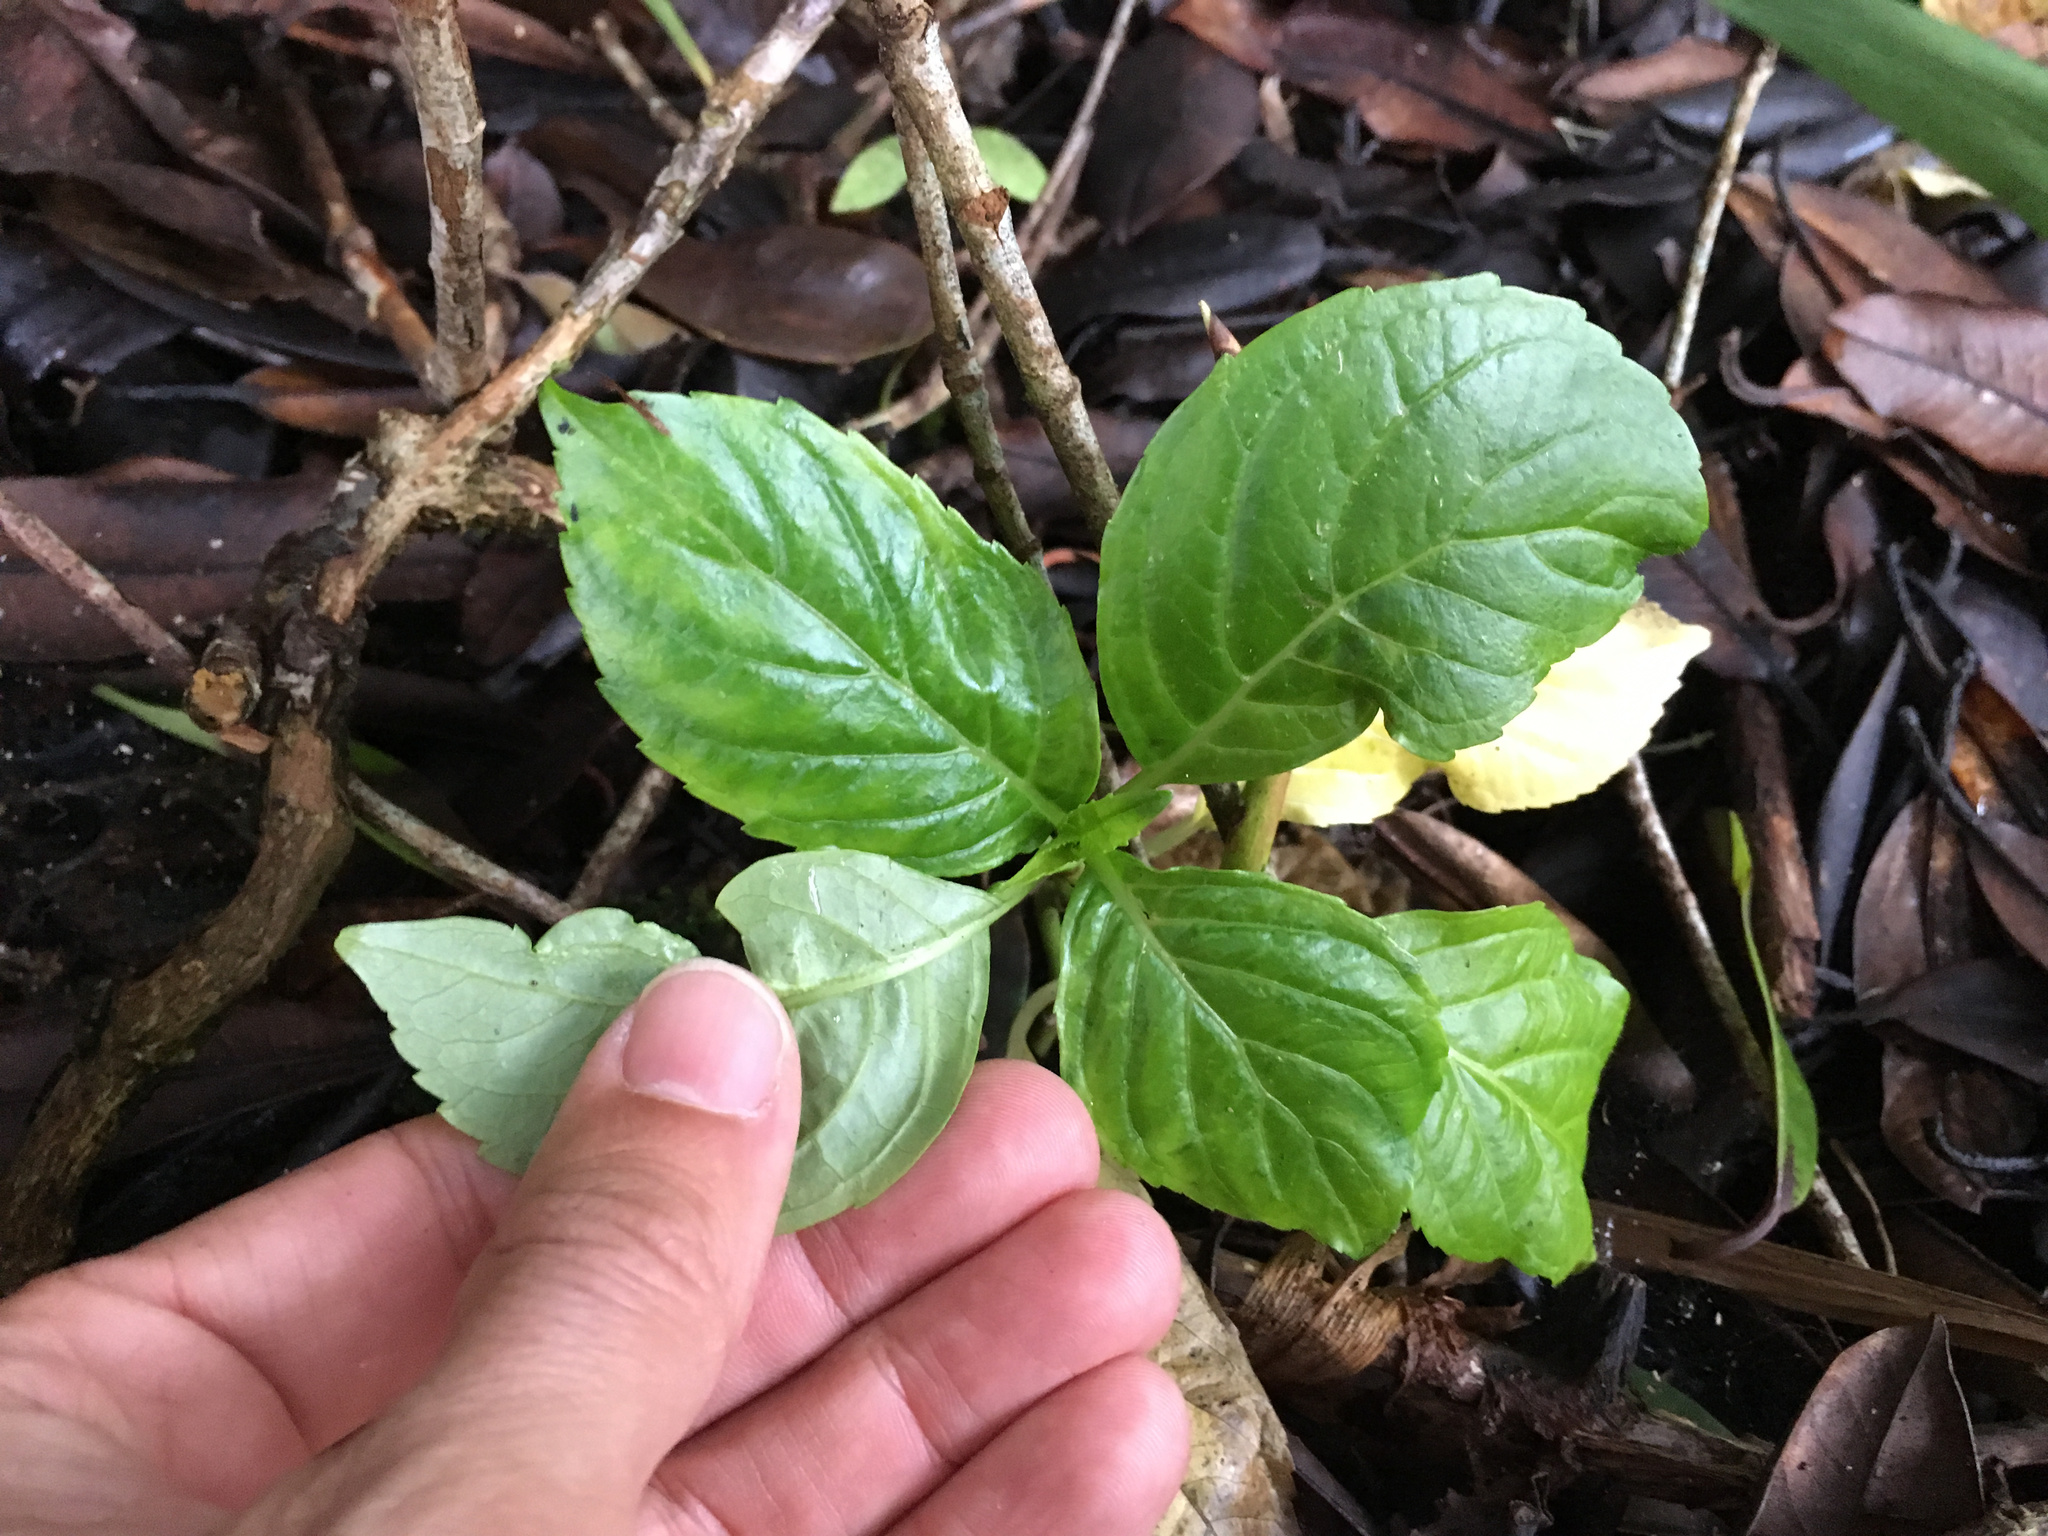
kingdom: Plantae
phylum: Tracheophyta
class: Magnoliopsida
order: Cornales
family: Hydrangeaceae
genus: Hydrangea
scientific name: Hydrangea macrophylla
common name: Hydrangea
